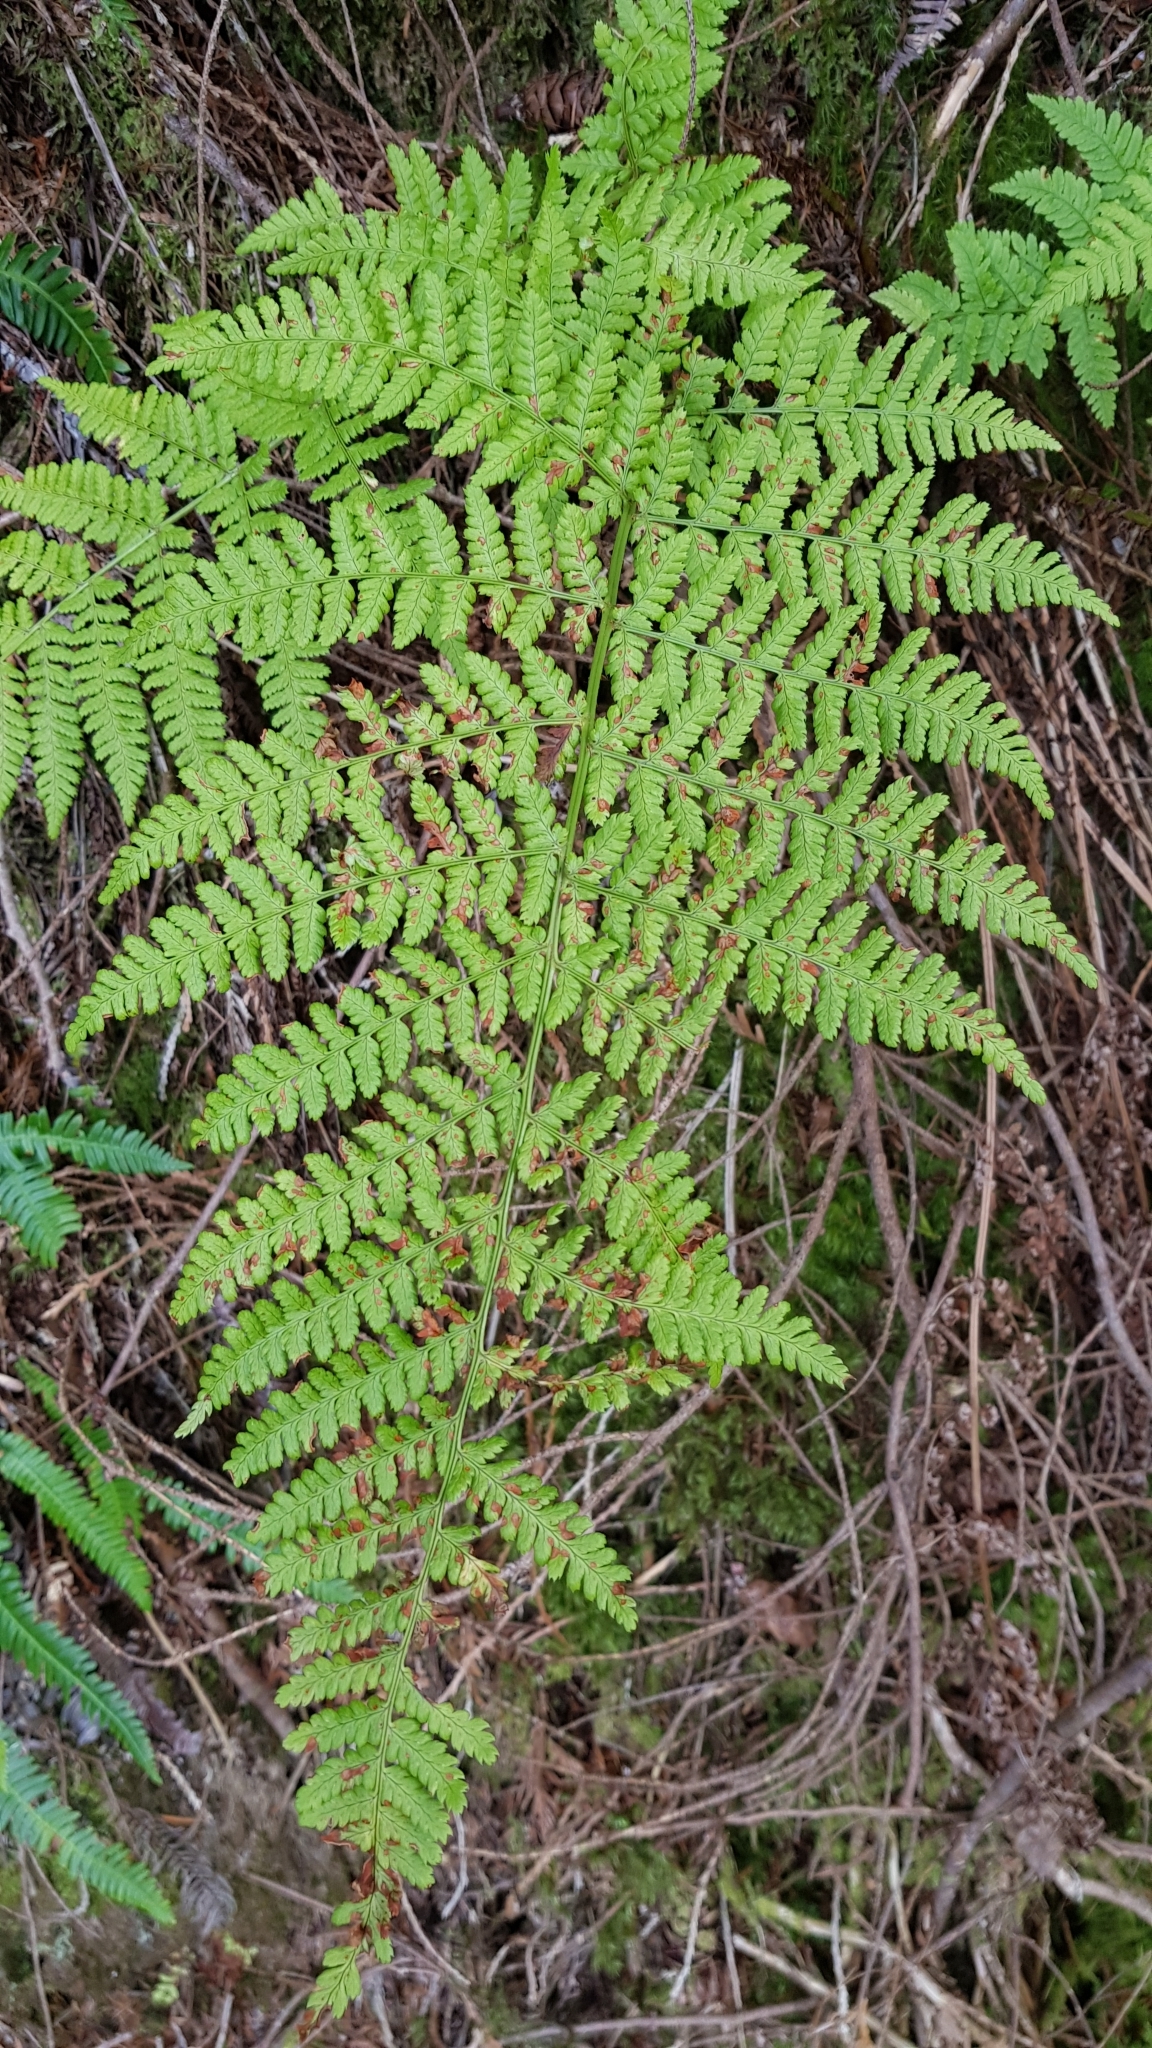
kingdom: Plantae
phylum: Tracheophyta
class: Polypodiopsida
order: Polypodiales
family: Dryopteridaceae
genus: Dryopteris
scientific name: Dryopteris dilatata
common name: Broad buckler-fern
